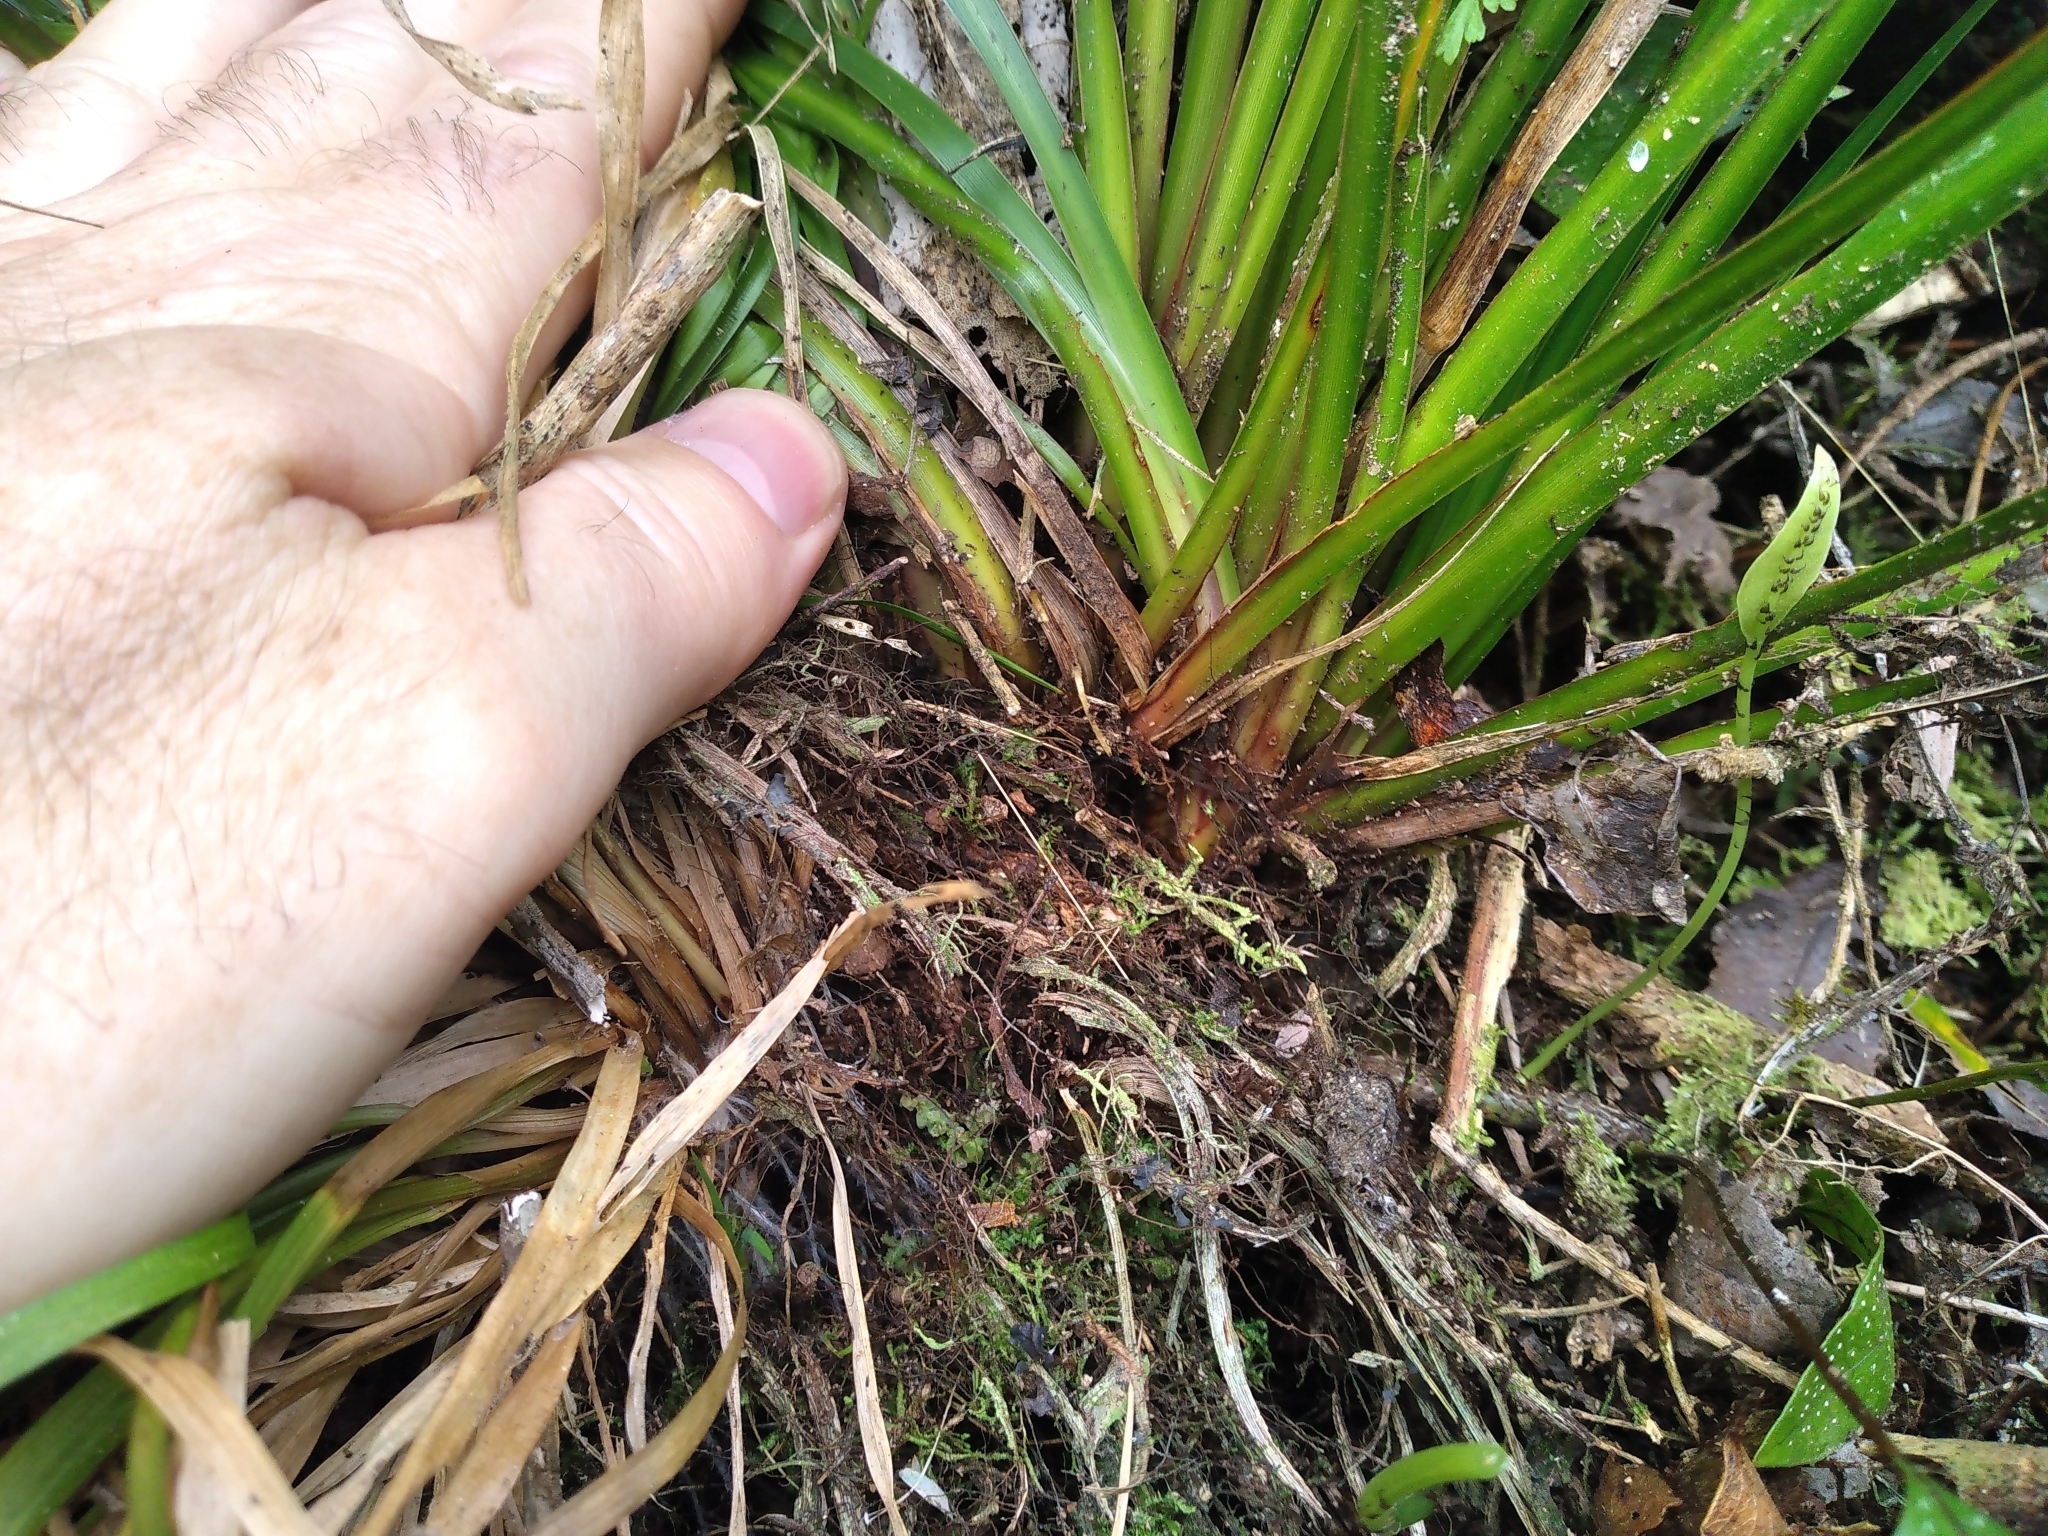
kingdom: Plantae
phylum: Tracheophyta
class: Liliopsida
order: Asparagales
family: Iridaceae
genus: Libertia
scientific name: Libertia grandiflora
